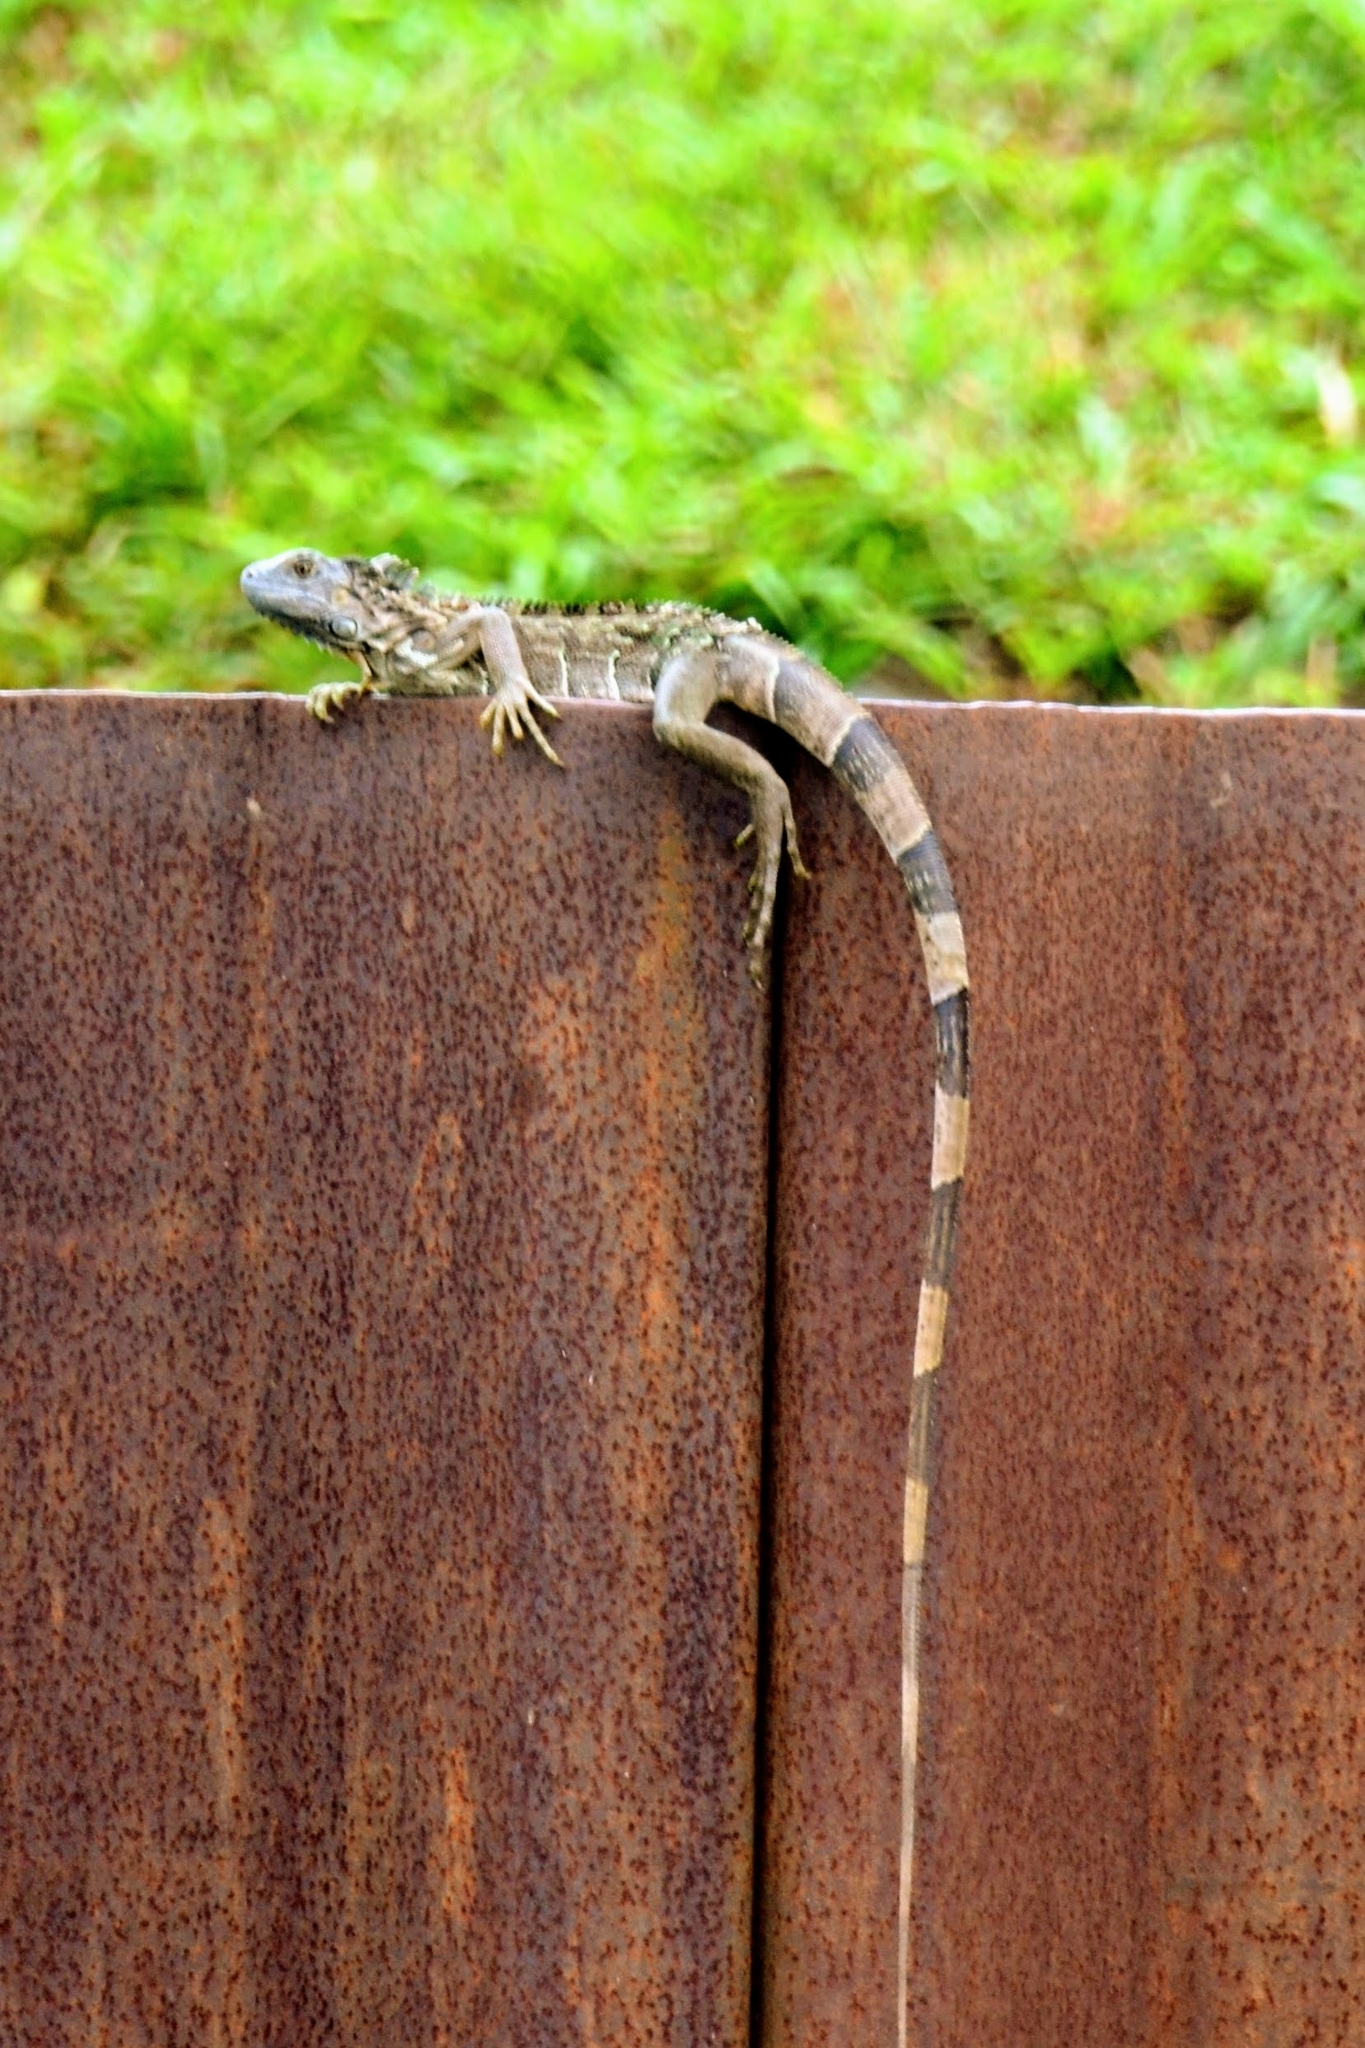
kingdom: Animalia
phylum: Chordata
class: Squamata
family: Iguanidae
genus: Iguana
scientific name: Iguana iguana
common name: Green iguana
